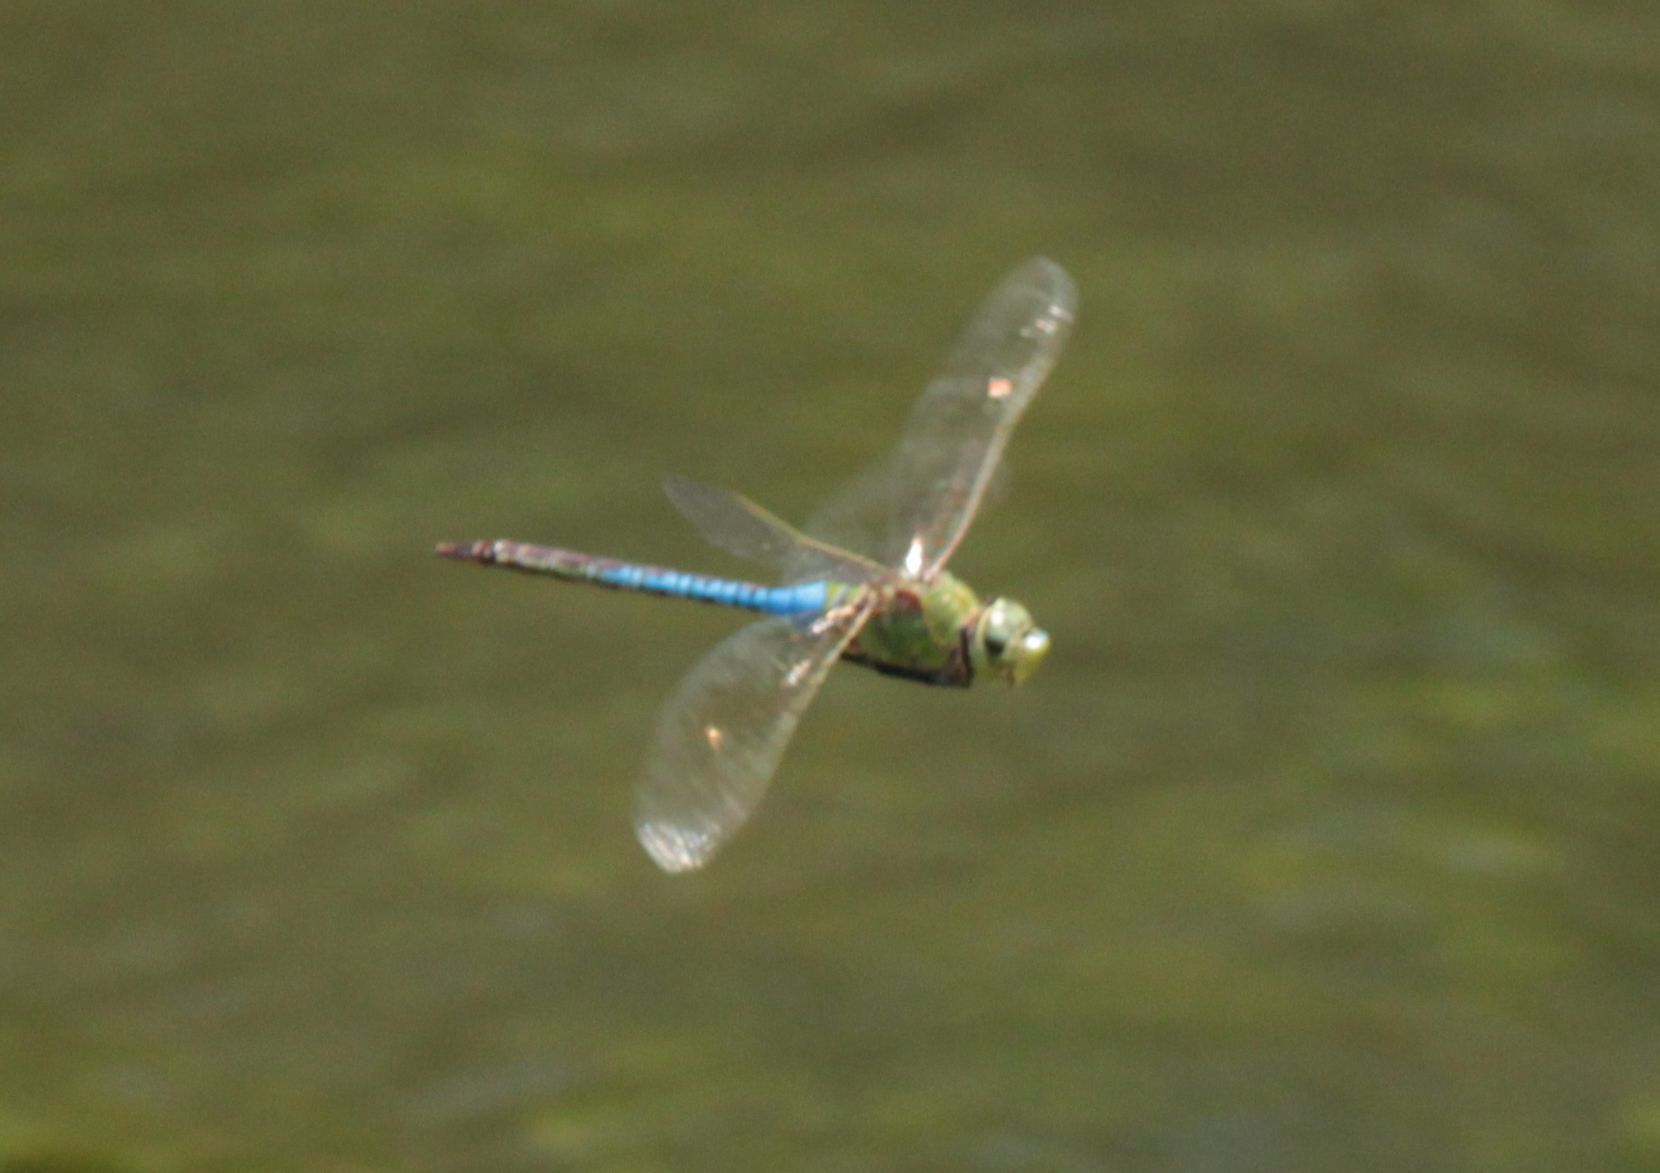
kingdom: Animalia
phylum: Arthropoda
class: Insecta
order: Odonata
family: Aeshnidae
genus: Anax
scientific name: Anax junius
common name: Common green darner
